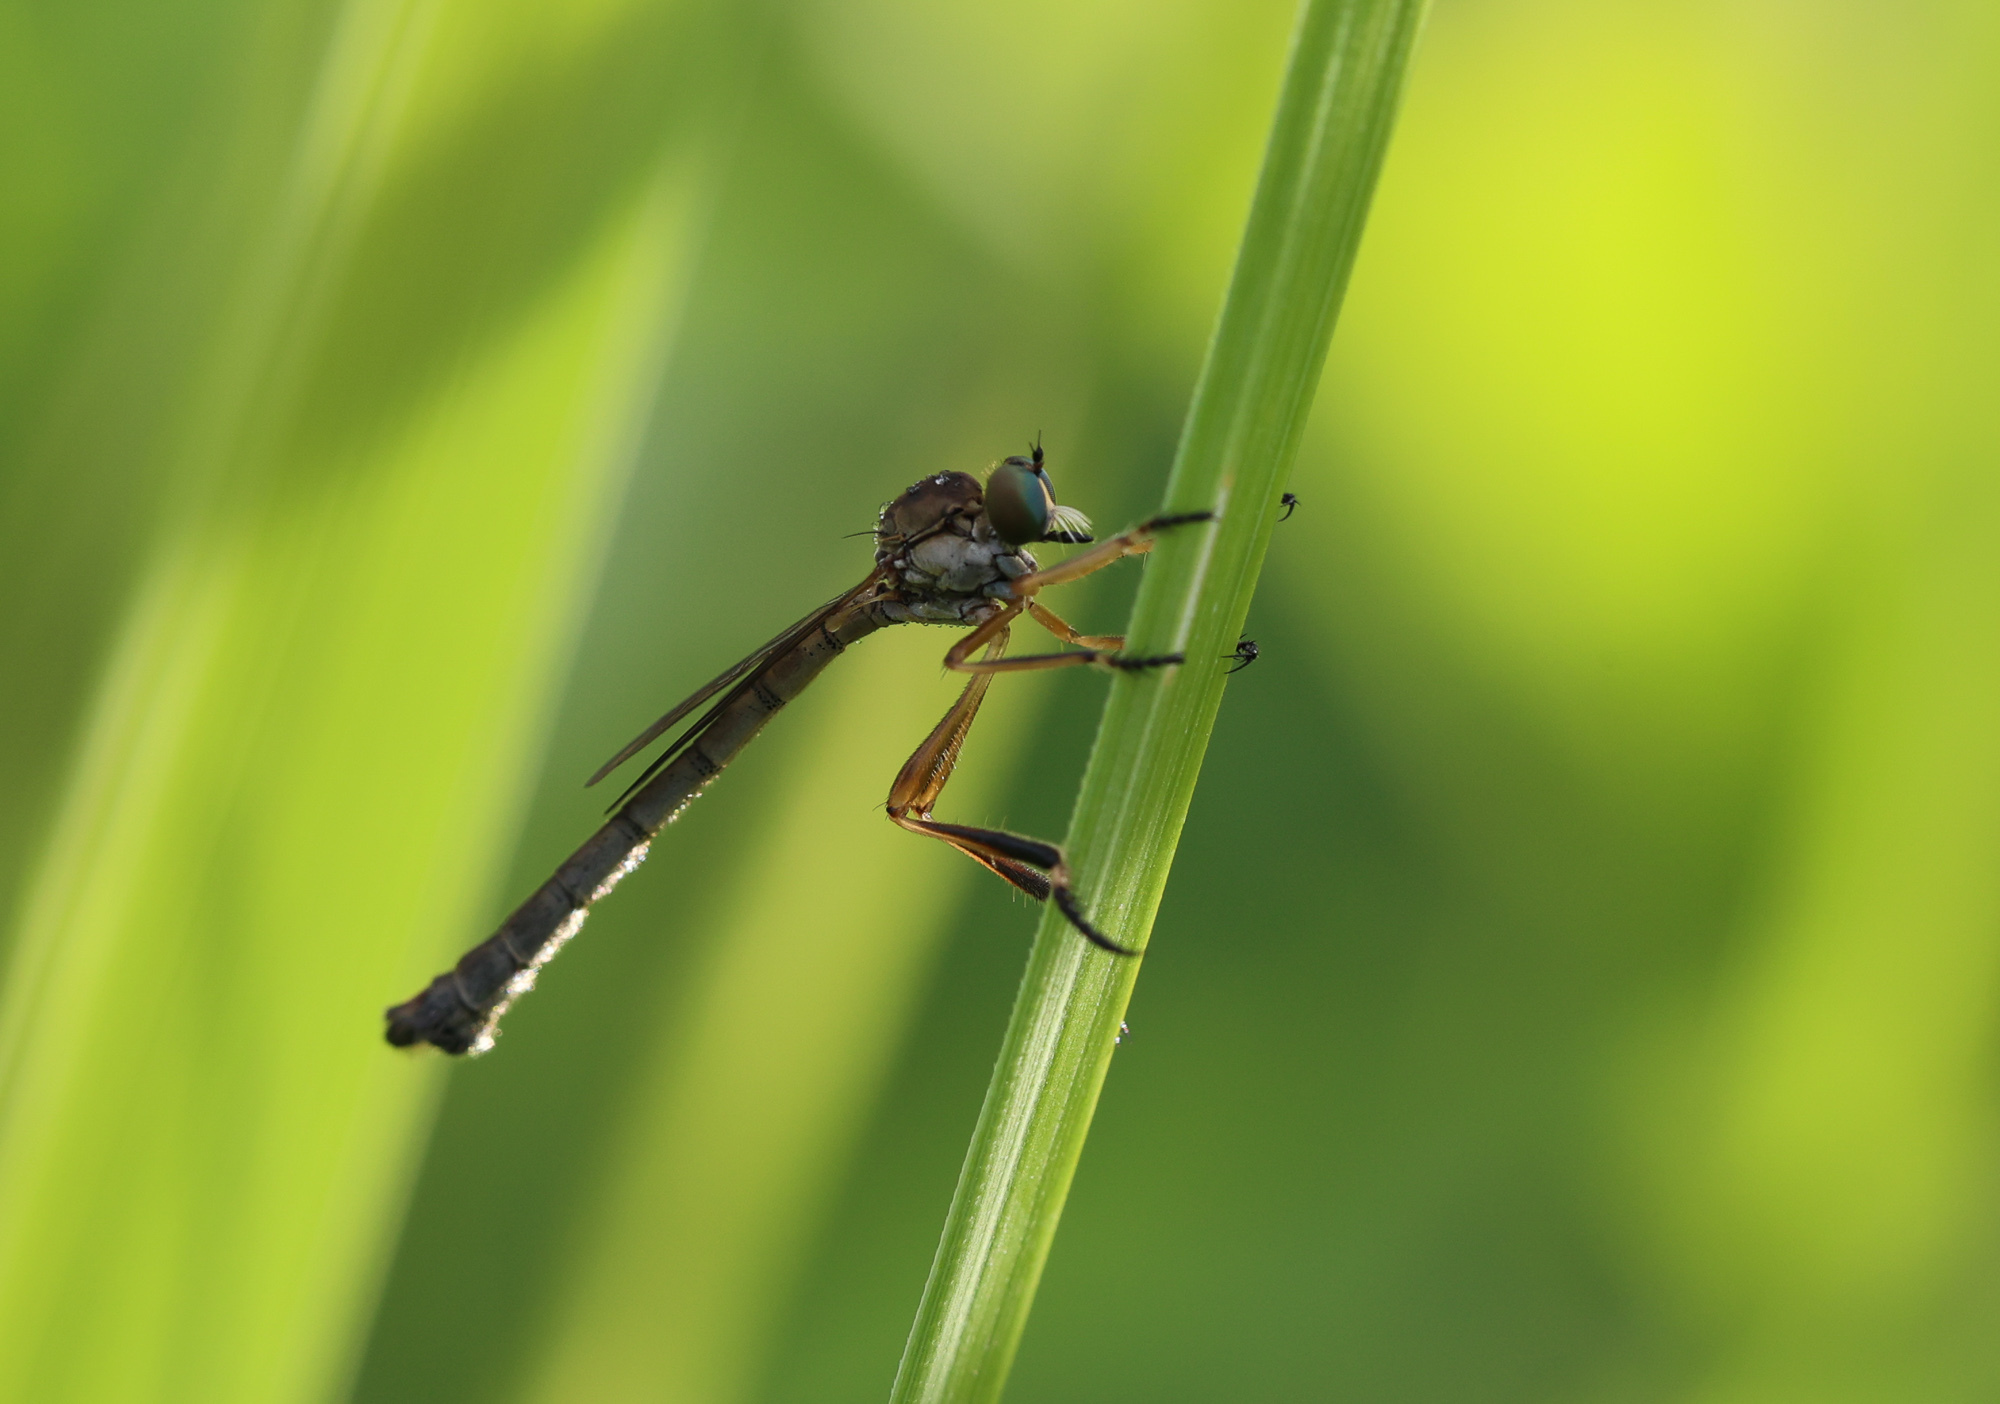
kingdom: Animalia
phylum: Arthropoda
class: Insecta
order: Diptera
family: Asilidae
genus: Leptogaster
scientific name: Leptogaster cylindrica
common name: Striped slender robberfly
